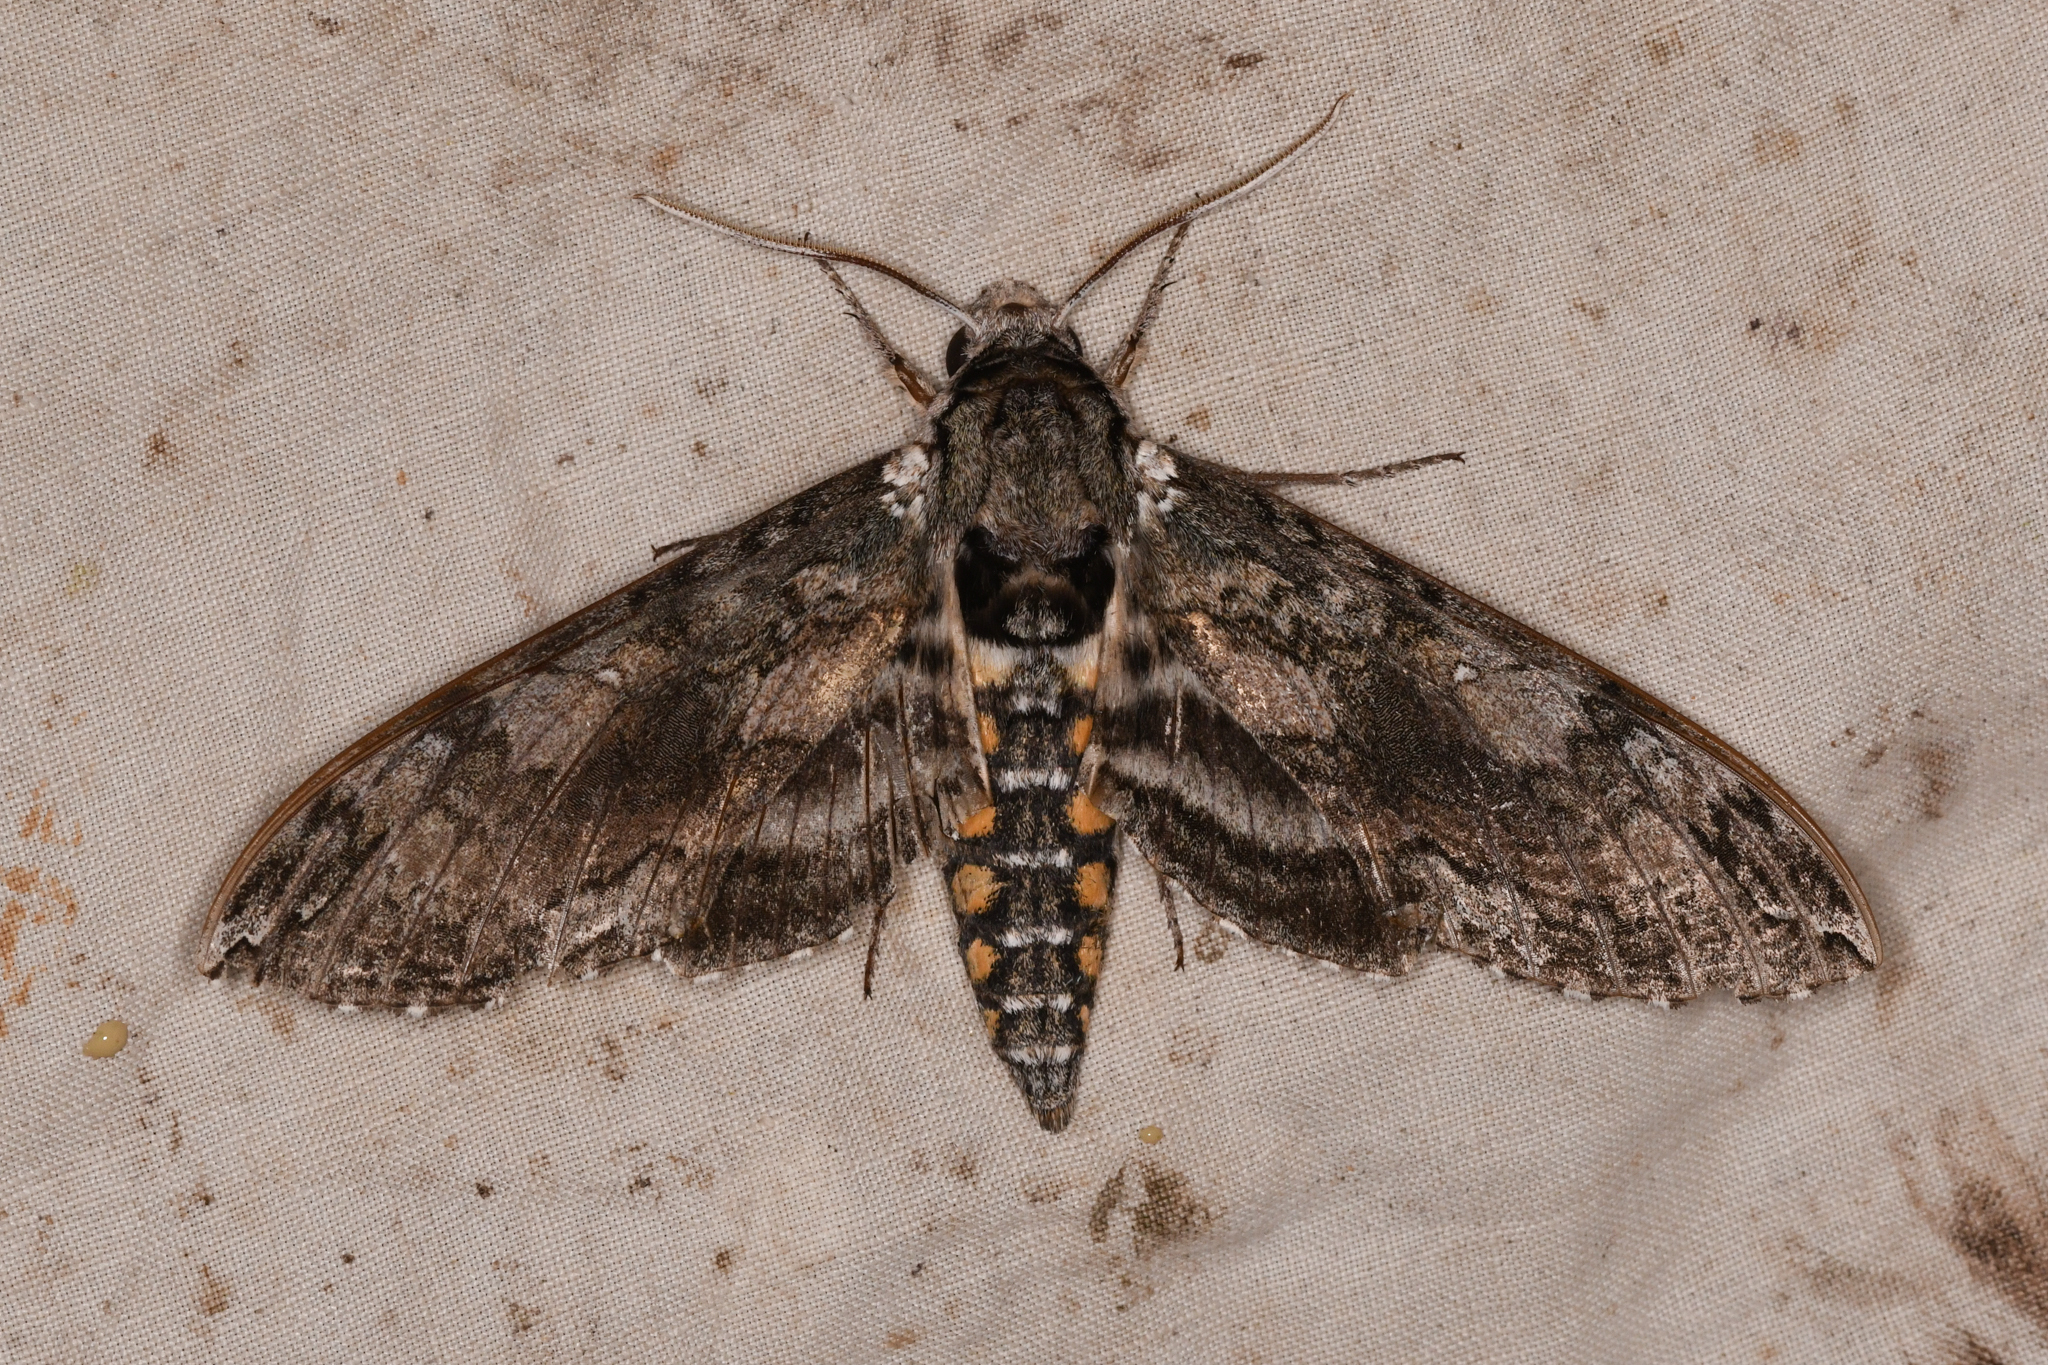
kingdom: Animalia
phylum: Arthropoda
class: Insecta
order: Lepidoptera
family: Sphingidae
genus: Manduca
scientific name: Manduca sexta
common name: Carolina sphinx
